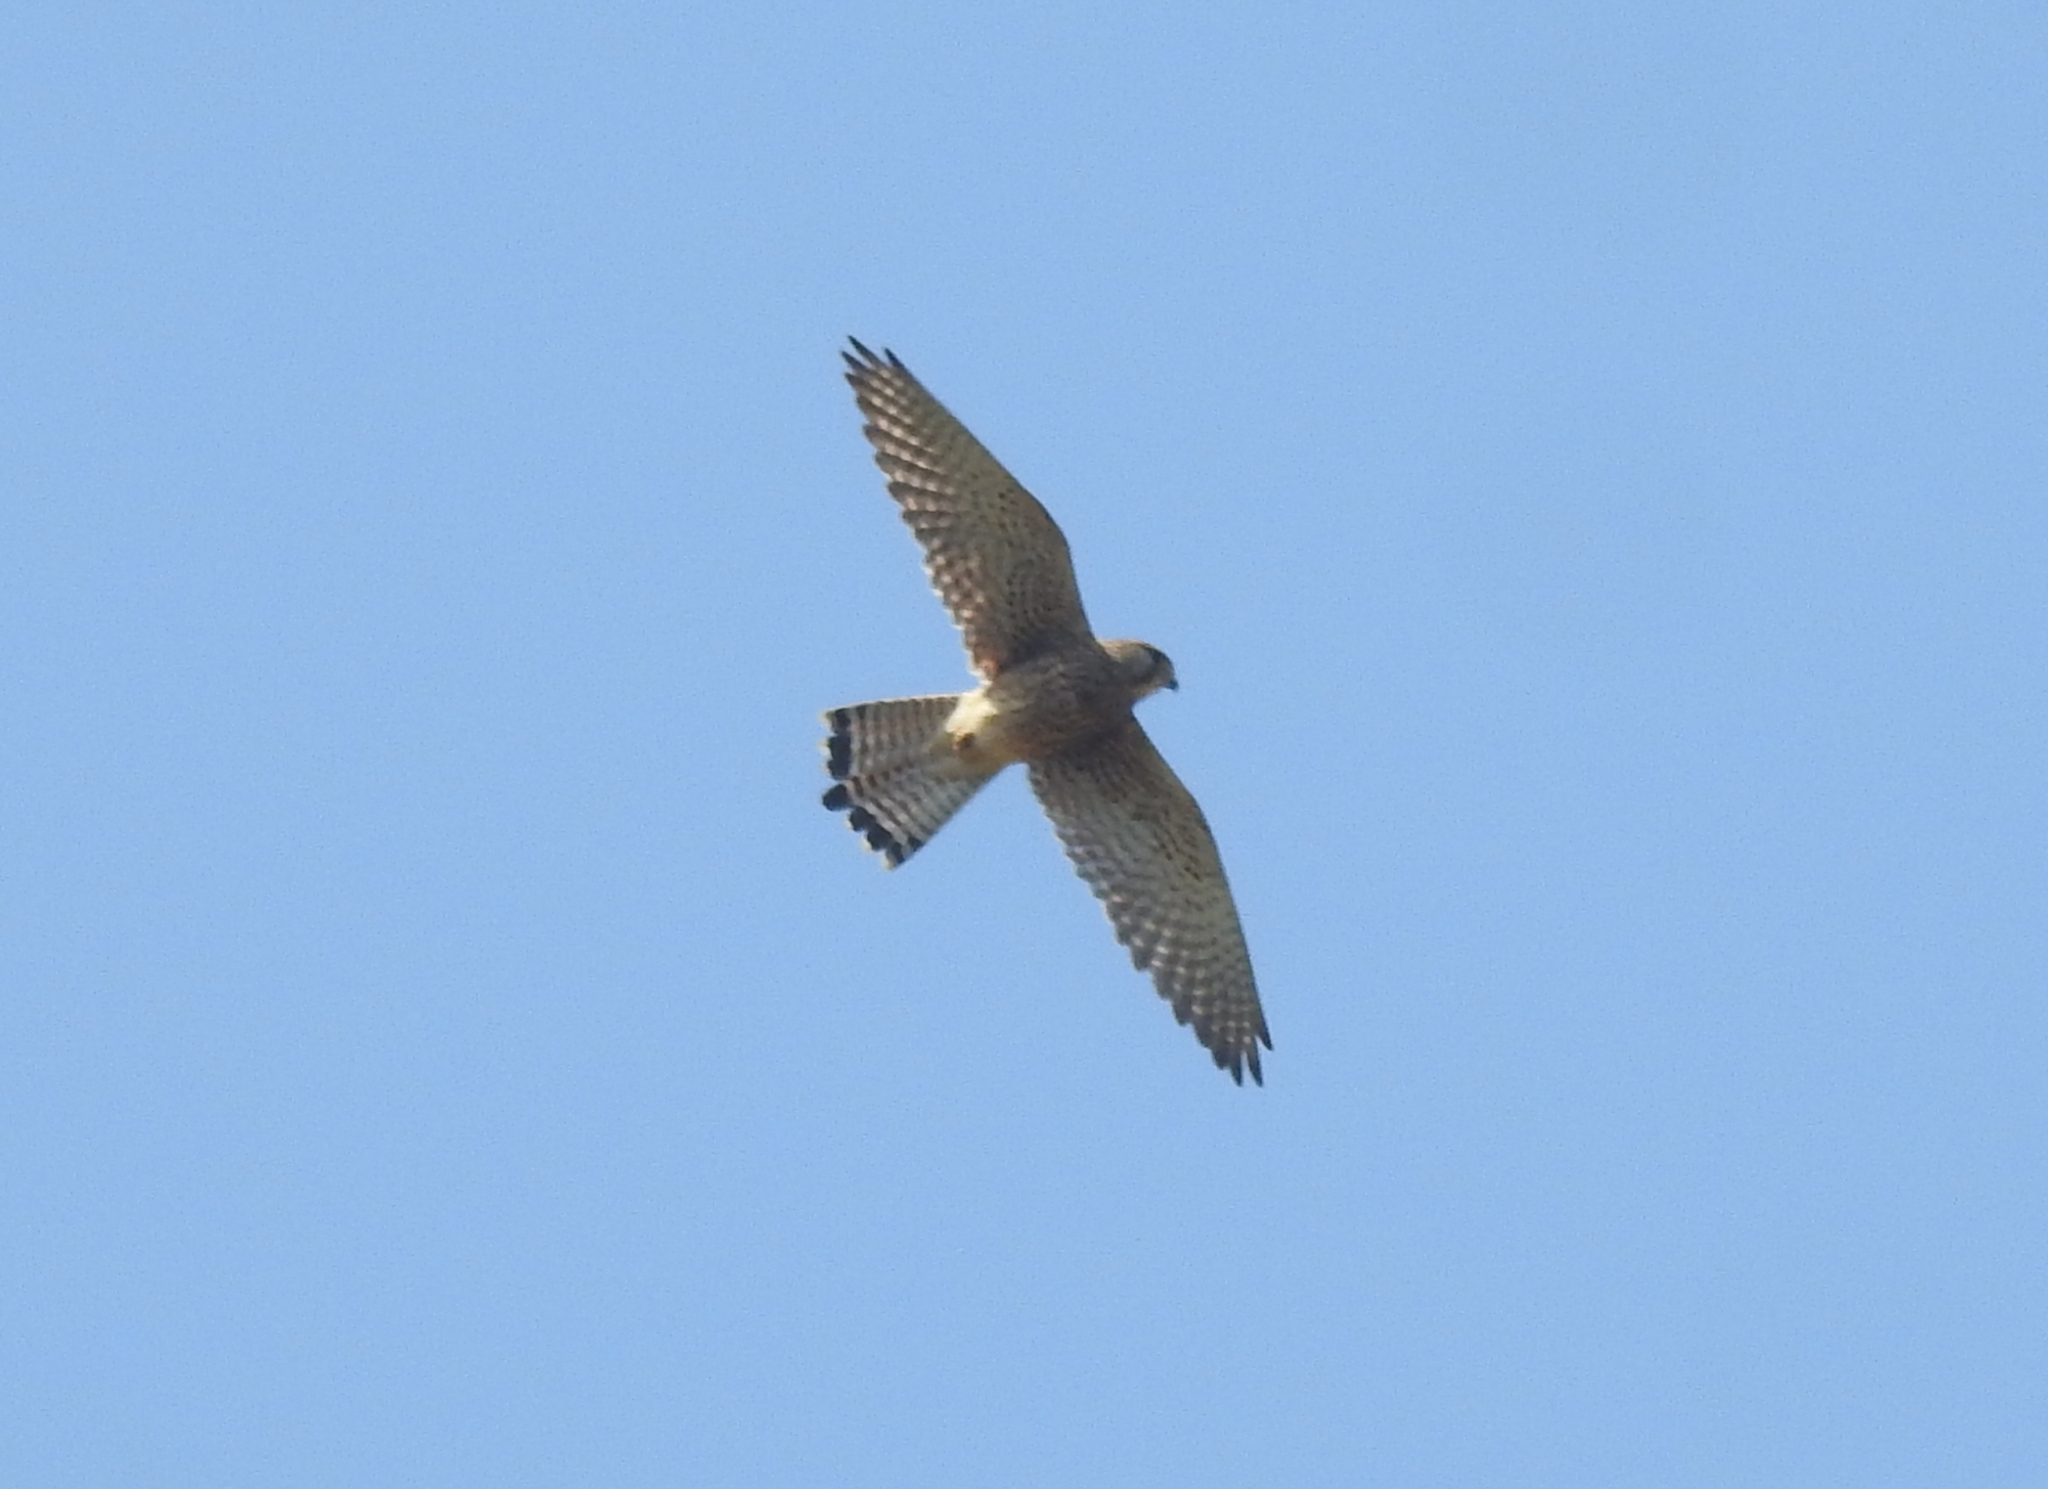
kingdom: Animalia
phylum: Chordata
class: Aves
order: Falconiformes
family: Falconidae
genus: Falco
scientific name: Falco tinnunculus
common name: Common kestrel
